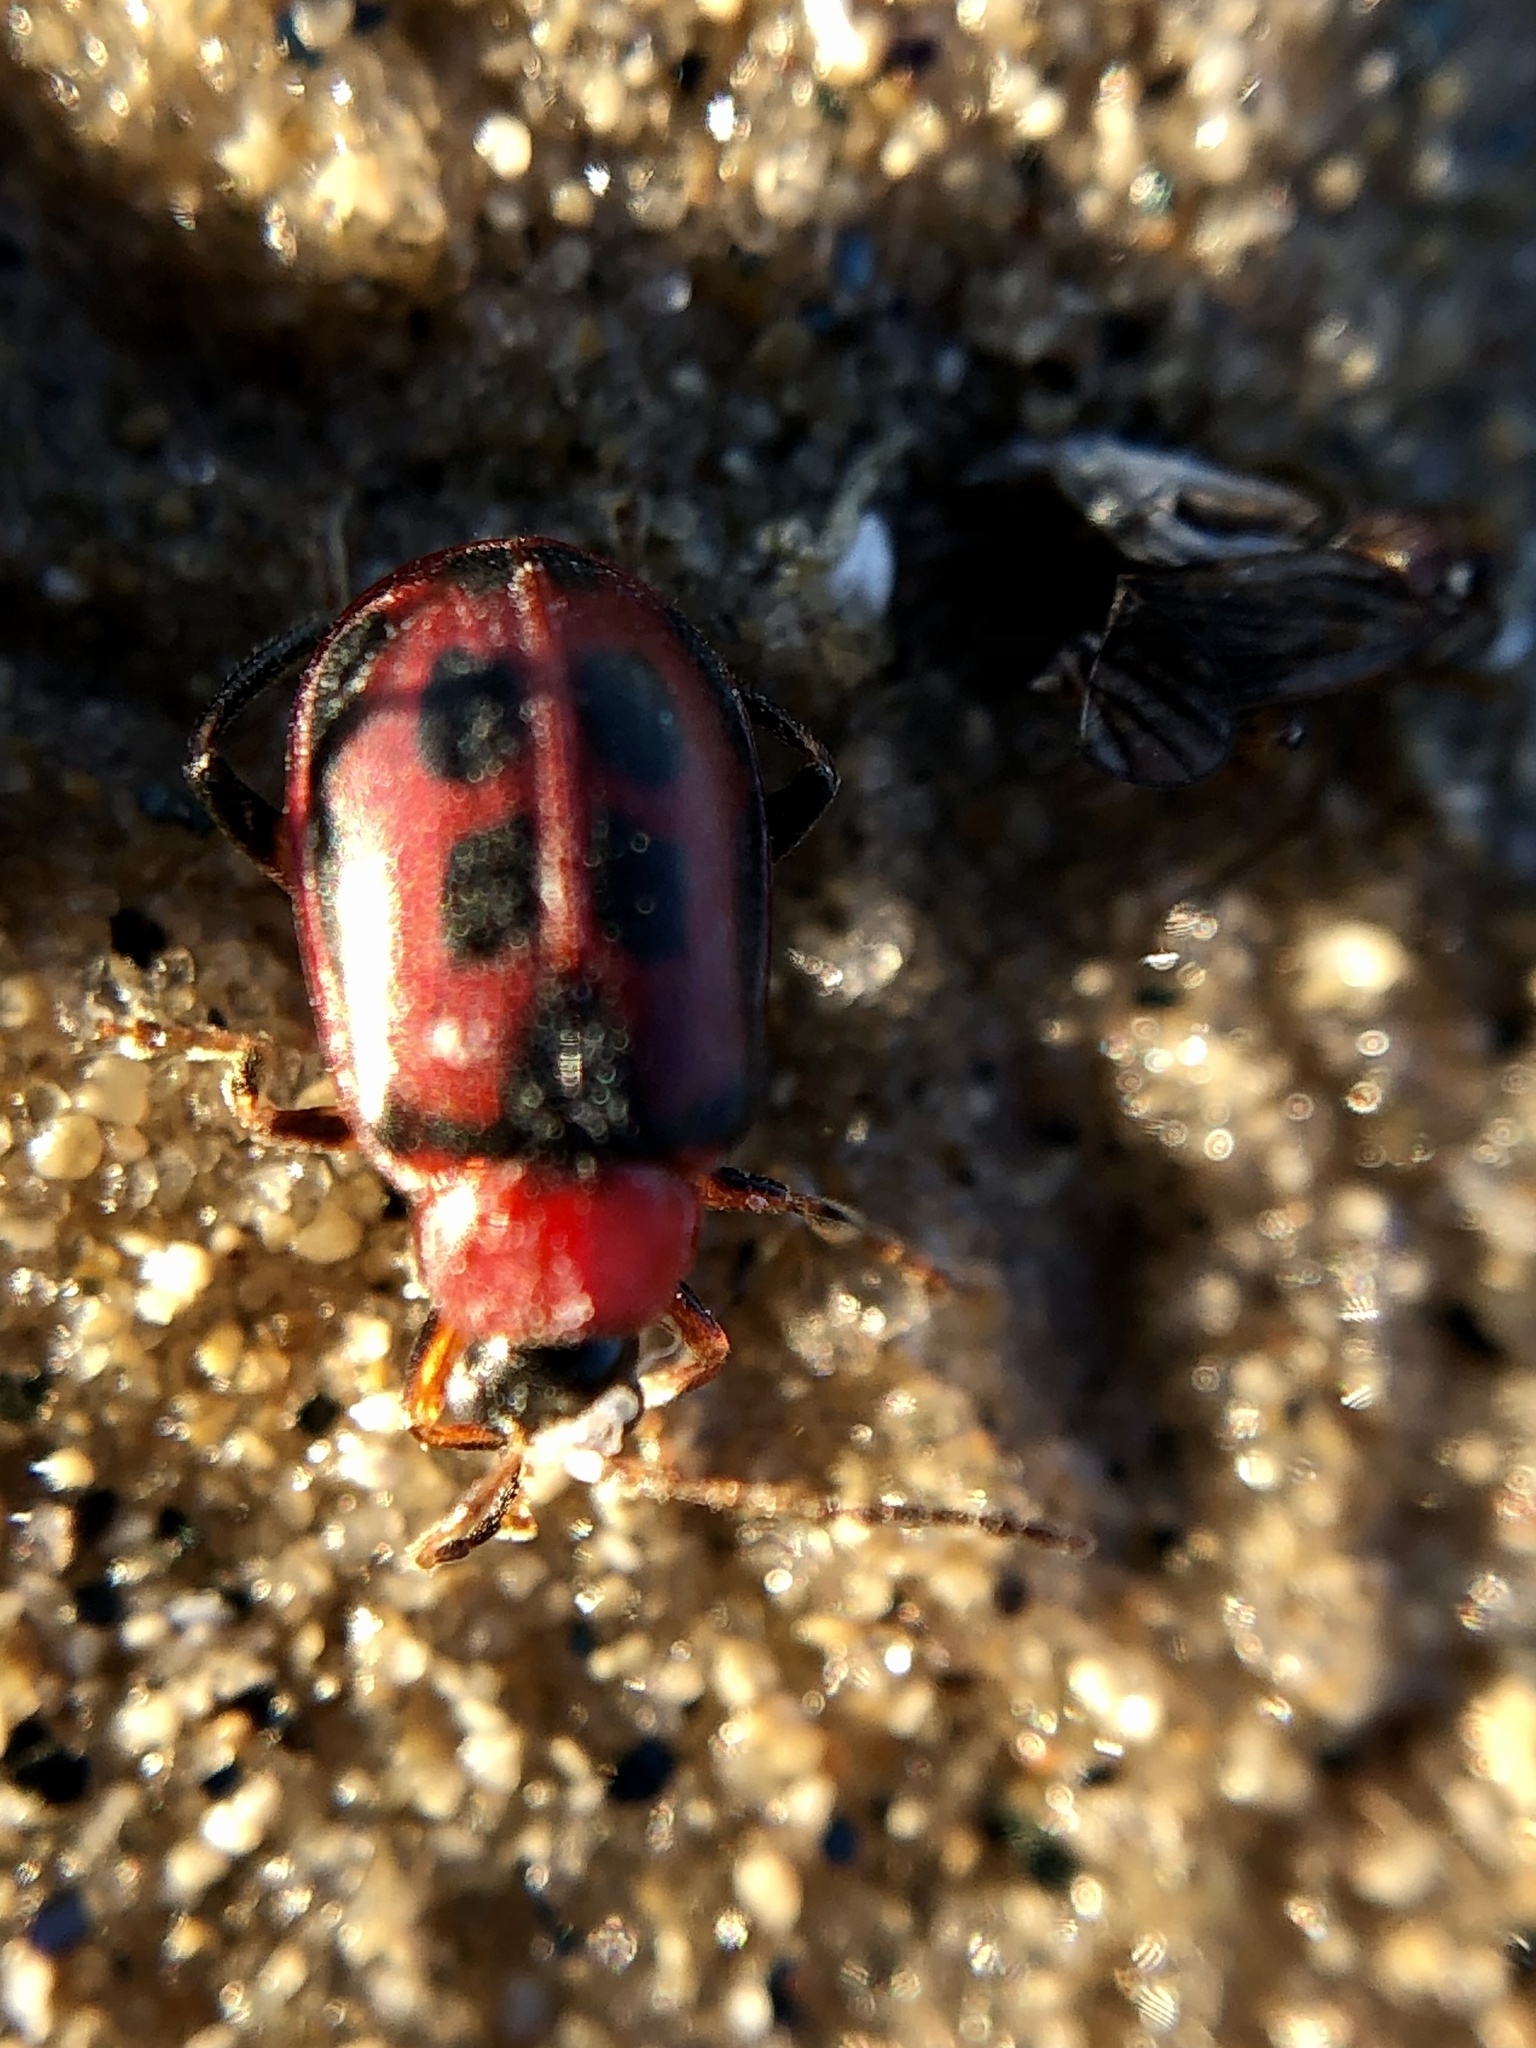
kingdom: Animalia
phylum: Arthropoda
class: Insecta
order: Coleoptera
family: Chrysomelidae
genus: Cerotoma
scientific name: Cerotoma trifurcata
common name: Bean leaf beetle
